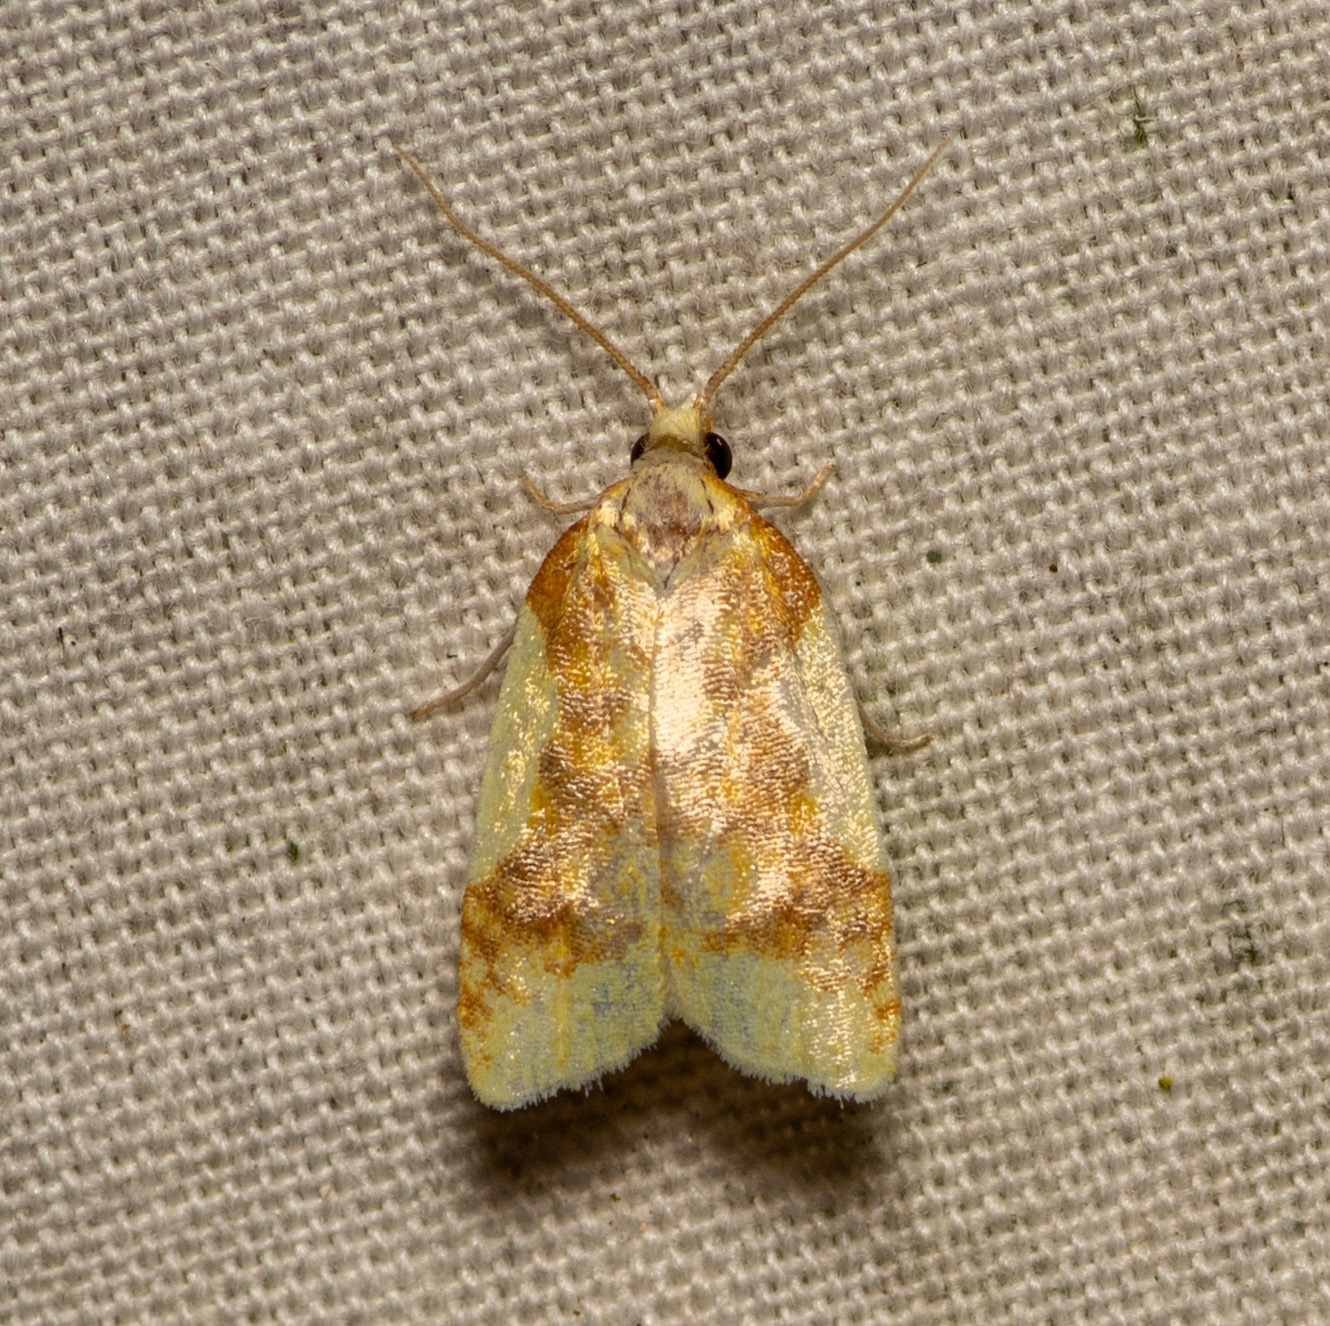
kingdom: Animalia
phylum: Arthropoda
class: Insecta
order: Lepidoptera
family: Tortricidae
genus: Sparganothis
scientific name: Sparganothis pulcherrimana
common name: Beautiful sparganothis
